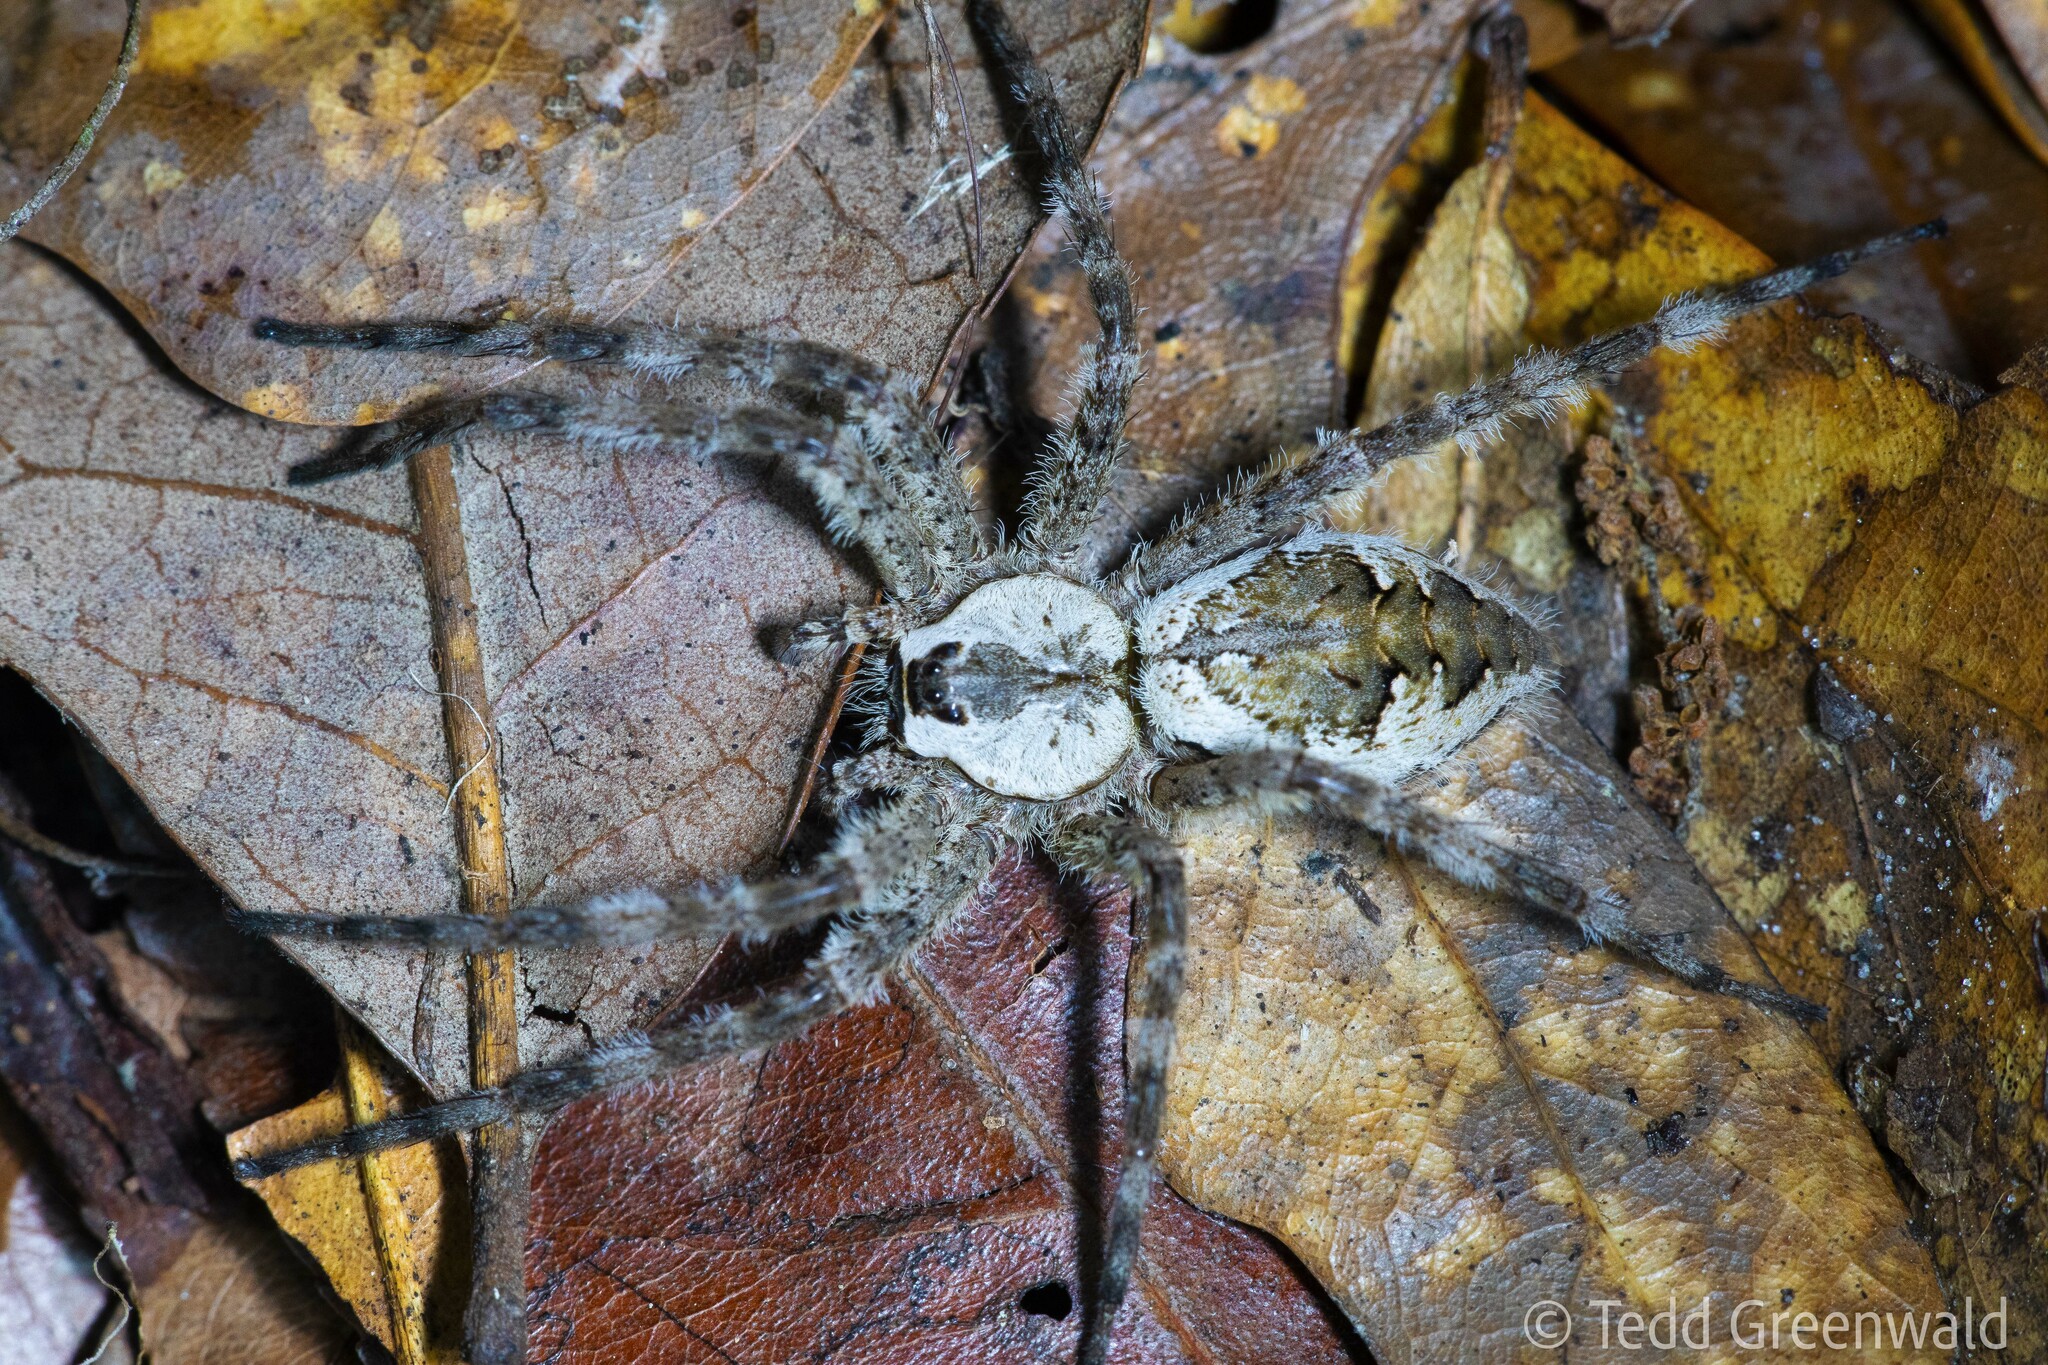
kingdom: Animalia
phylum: Arthropoda
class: Arachnida
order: Araneae
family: Pisauridae
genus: Dolomedes
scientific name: Dolomedes albineus
